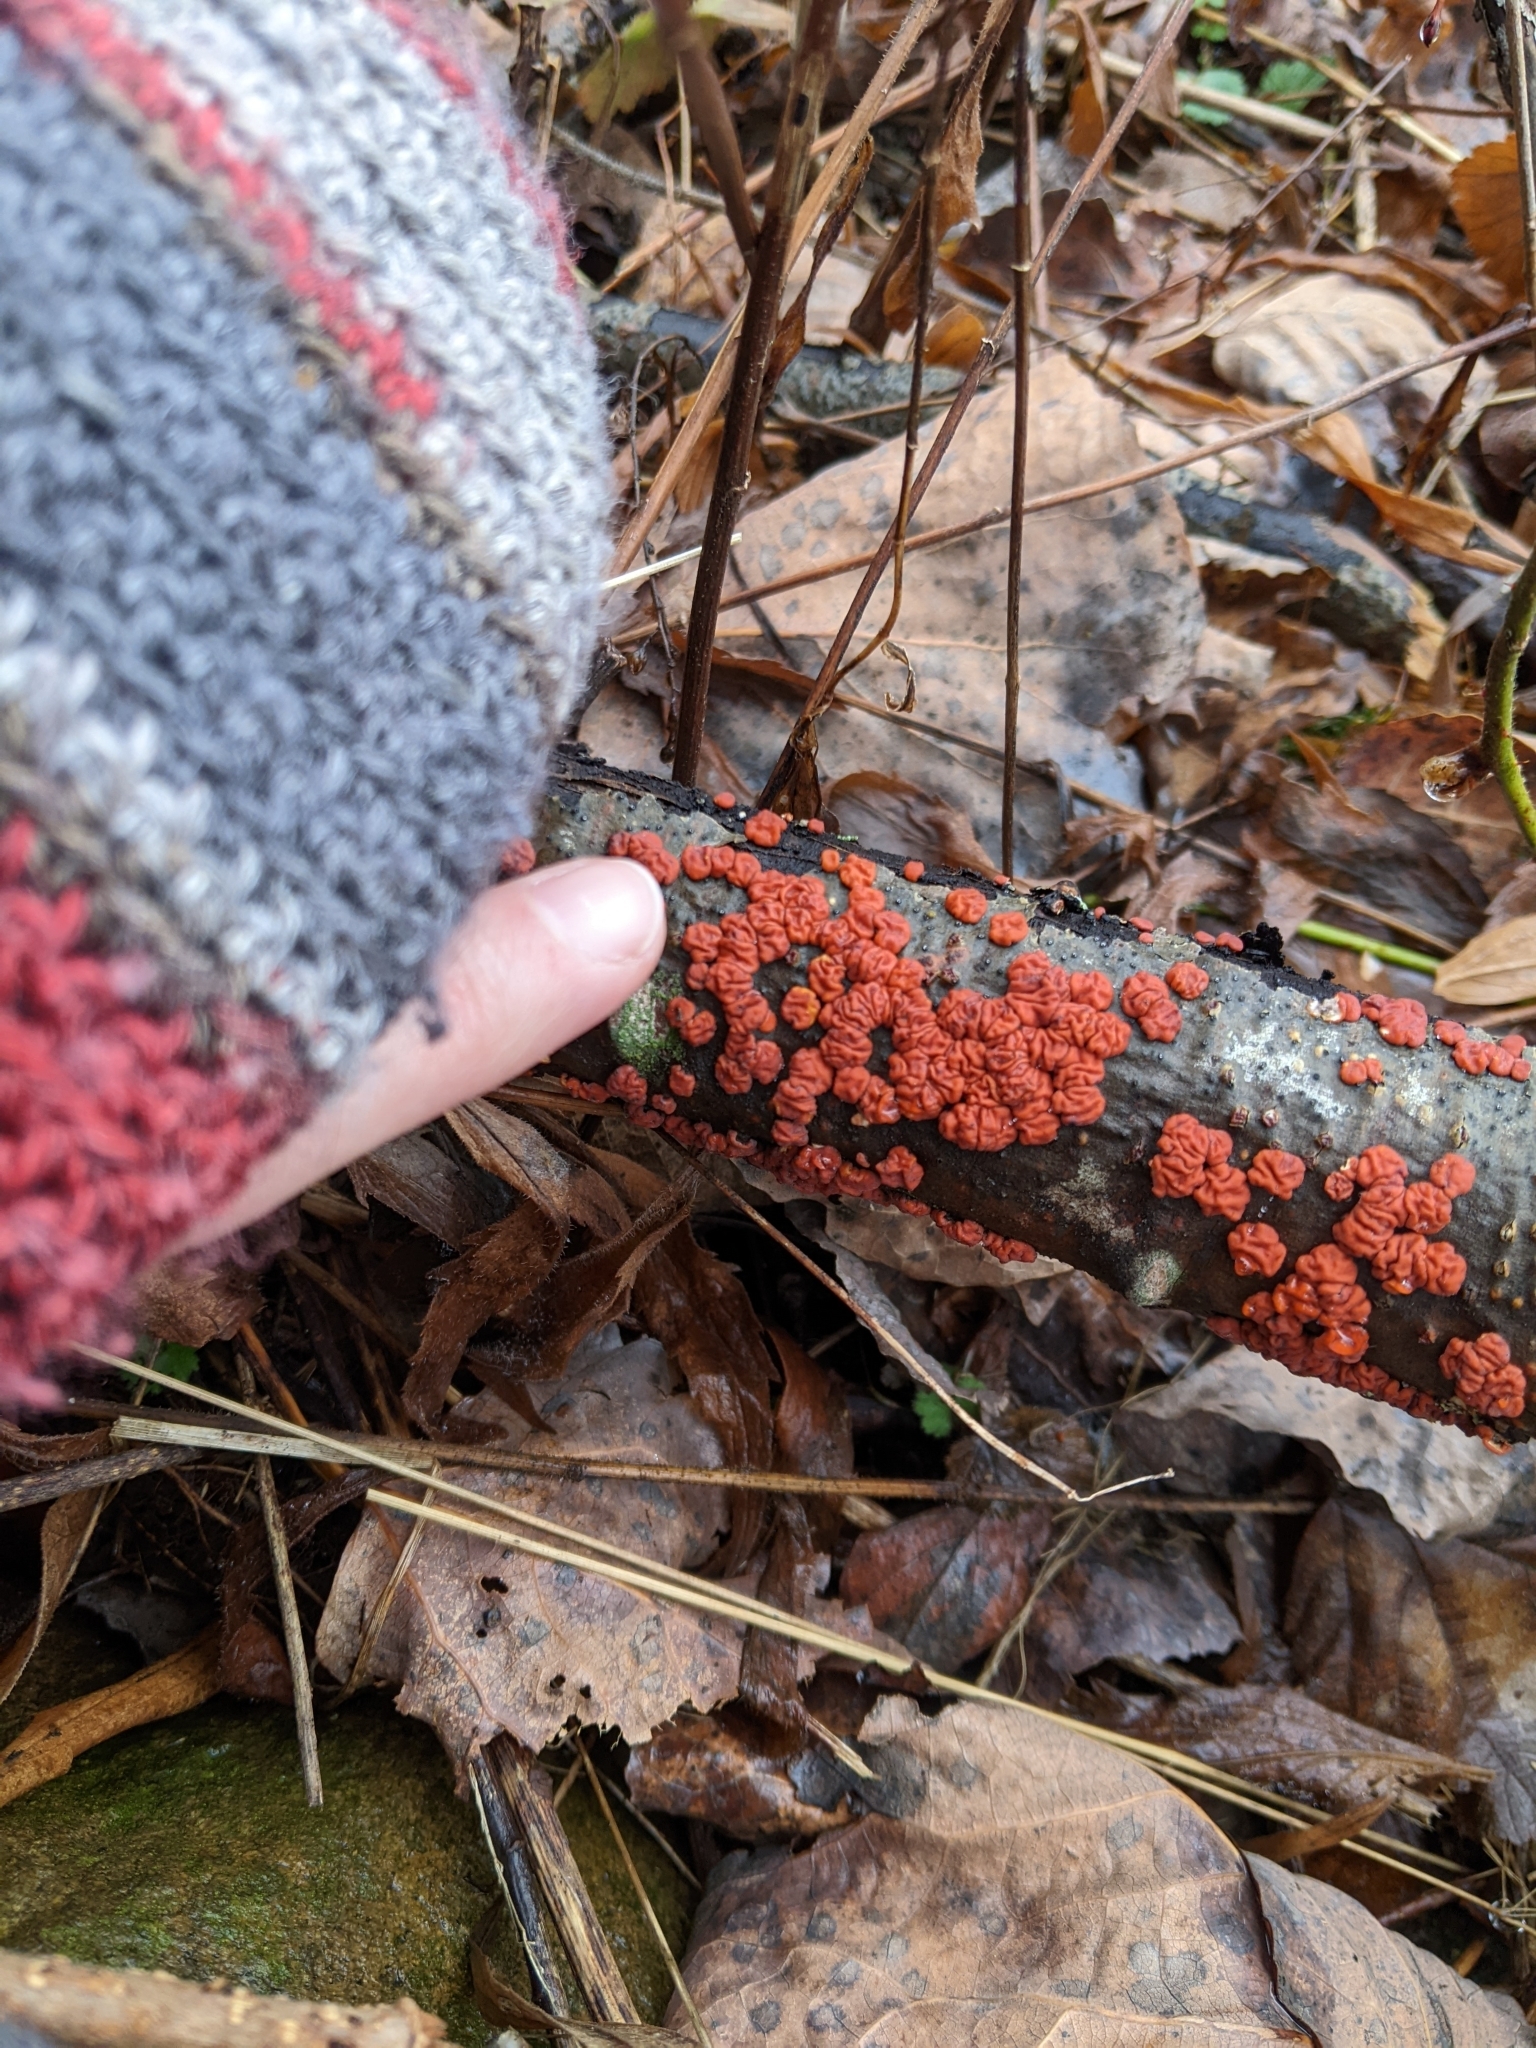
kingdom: Fungi
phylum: Basidiomycota
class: Agaricomycetes
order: Russulales
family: Peniophoraceae
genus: Peniophora
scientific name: Peniophora rufa
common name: Red tree brain fungus
